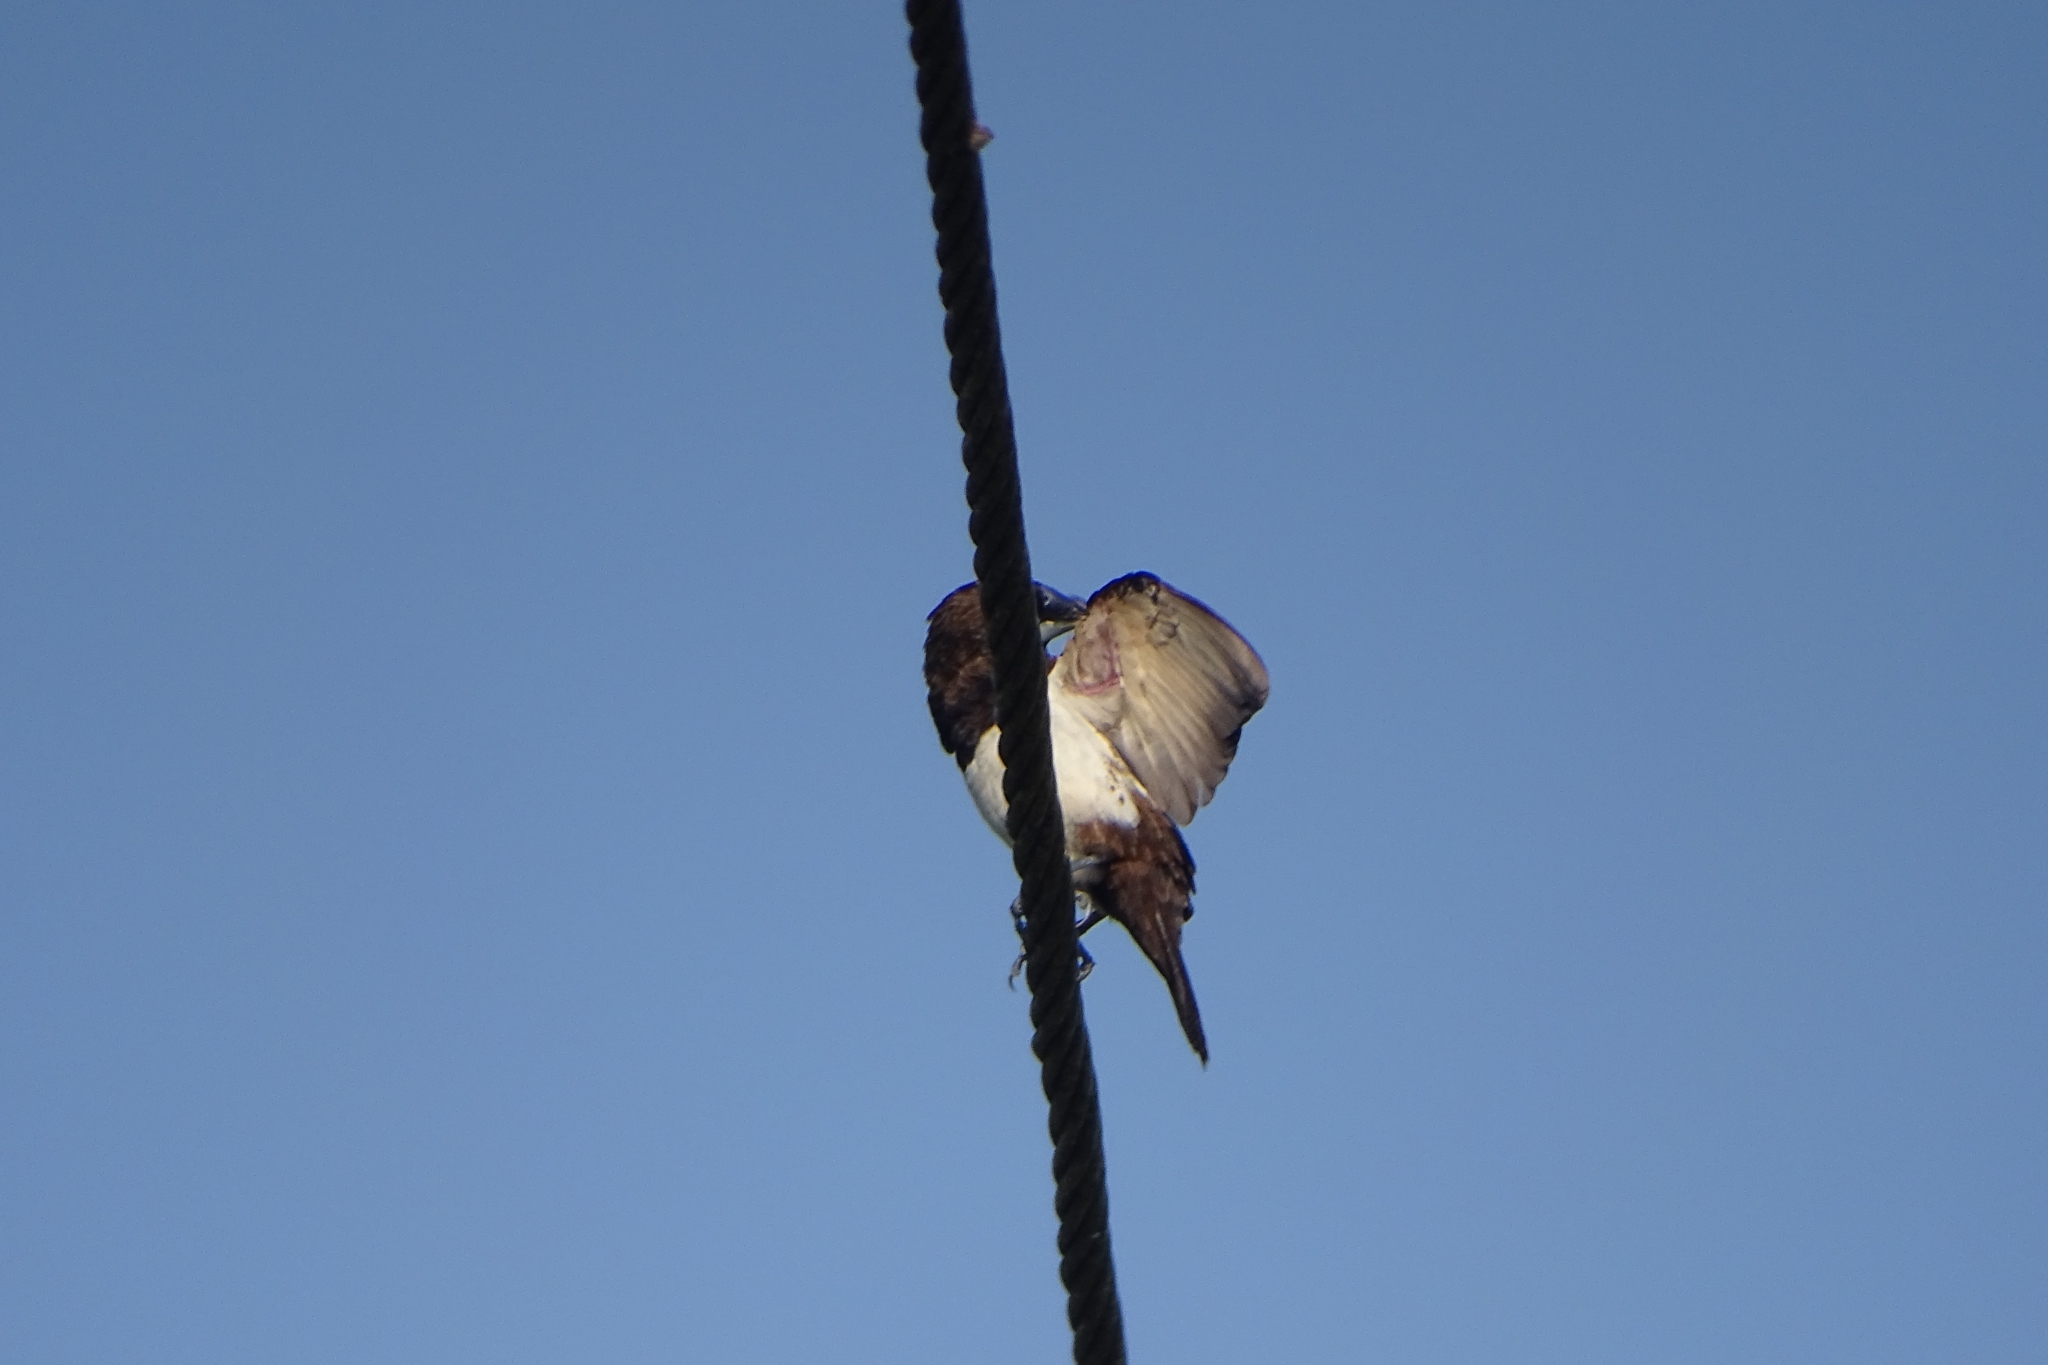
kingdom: Animalia
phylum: Chordata
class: Aves
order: Passeriformes
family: Estrildidae
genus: Lonchura
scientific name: Lonchura striata
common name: White-rumped munia
